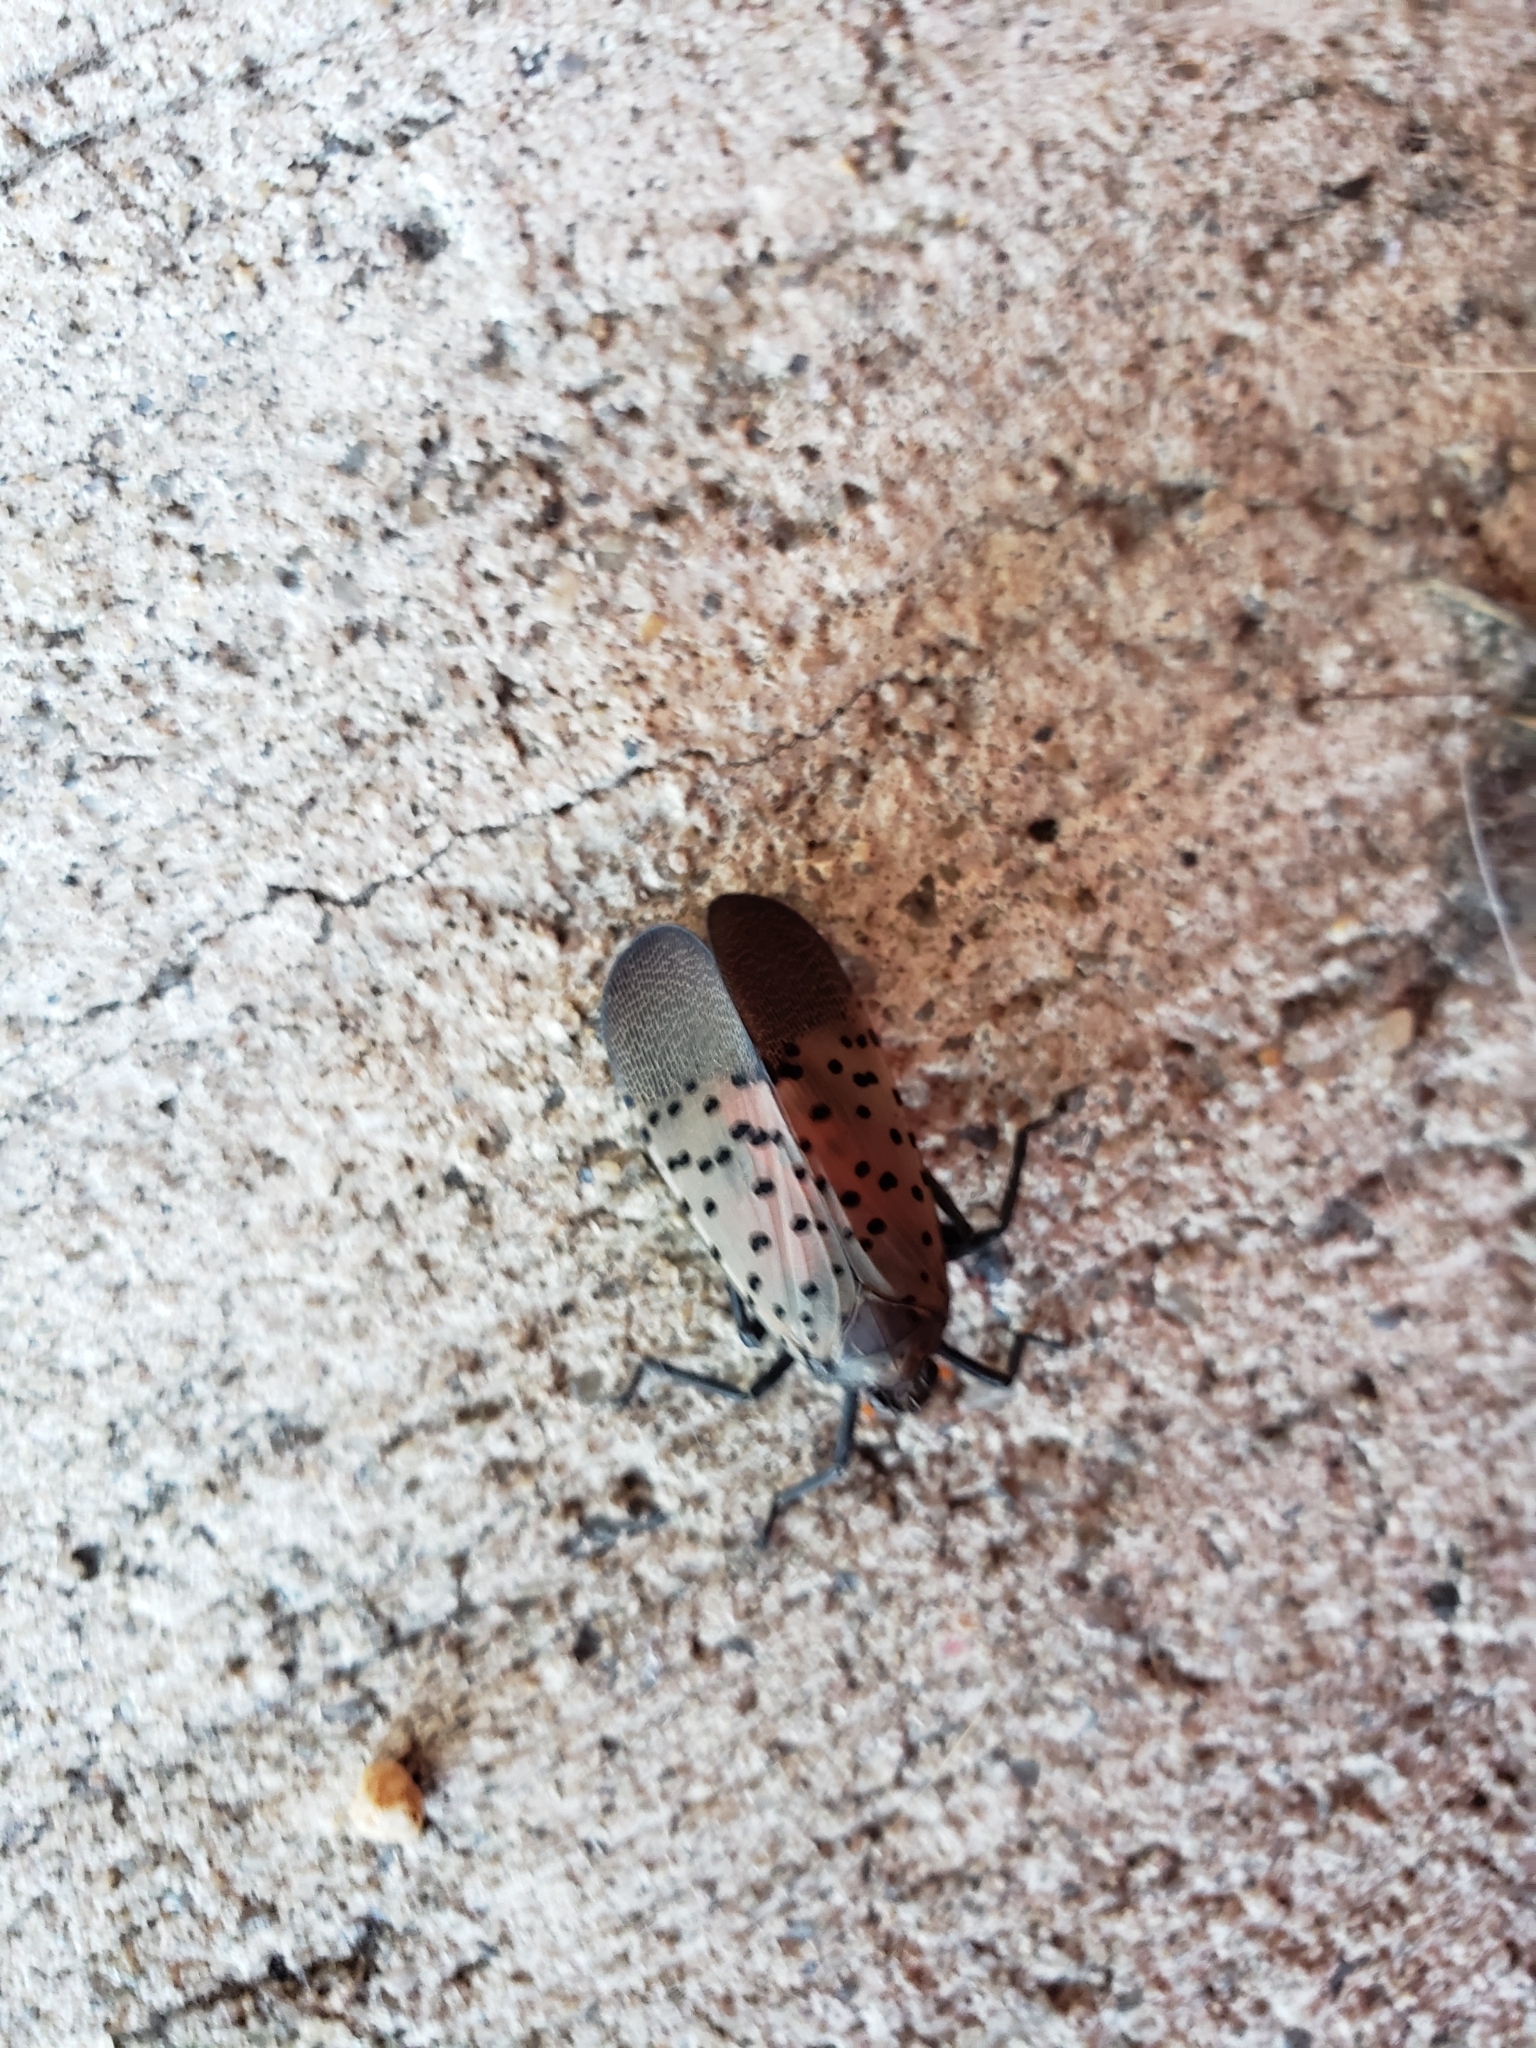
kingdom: Animalia
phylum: Arthropoda
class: Insecta
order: Hemiptera
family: Fulgoridae
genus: Lycorma
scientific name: Lycorma delicatula
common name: Spotted lanternfly
